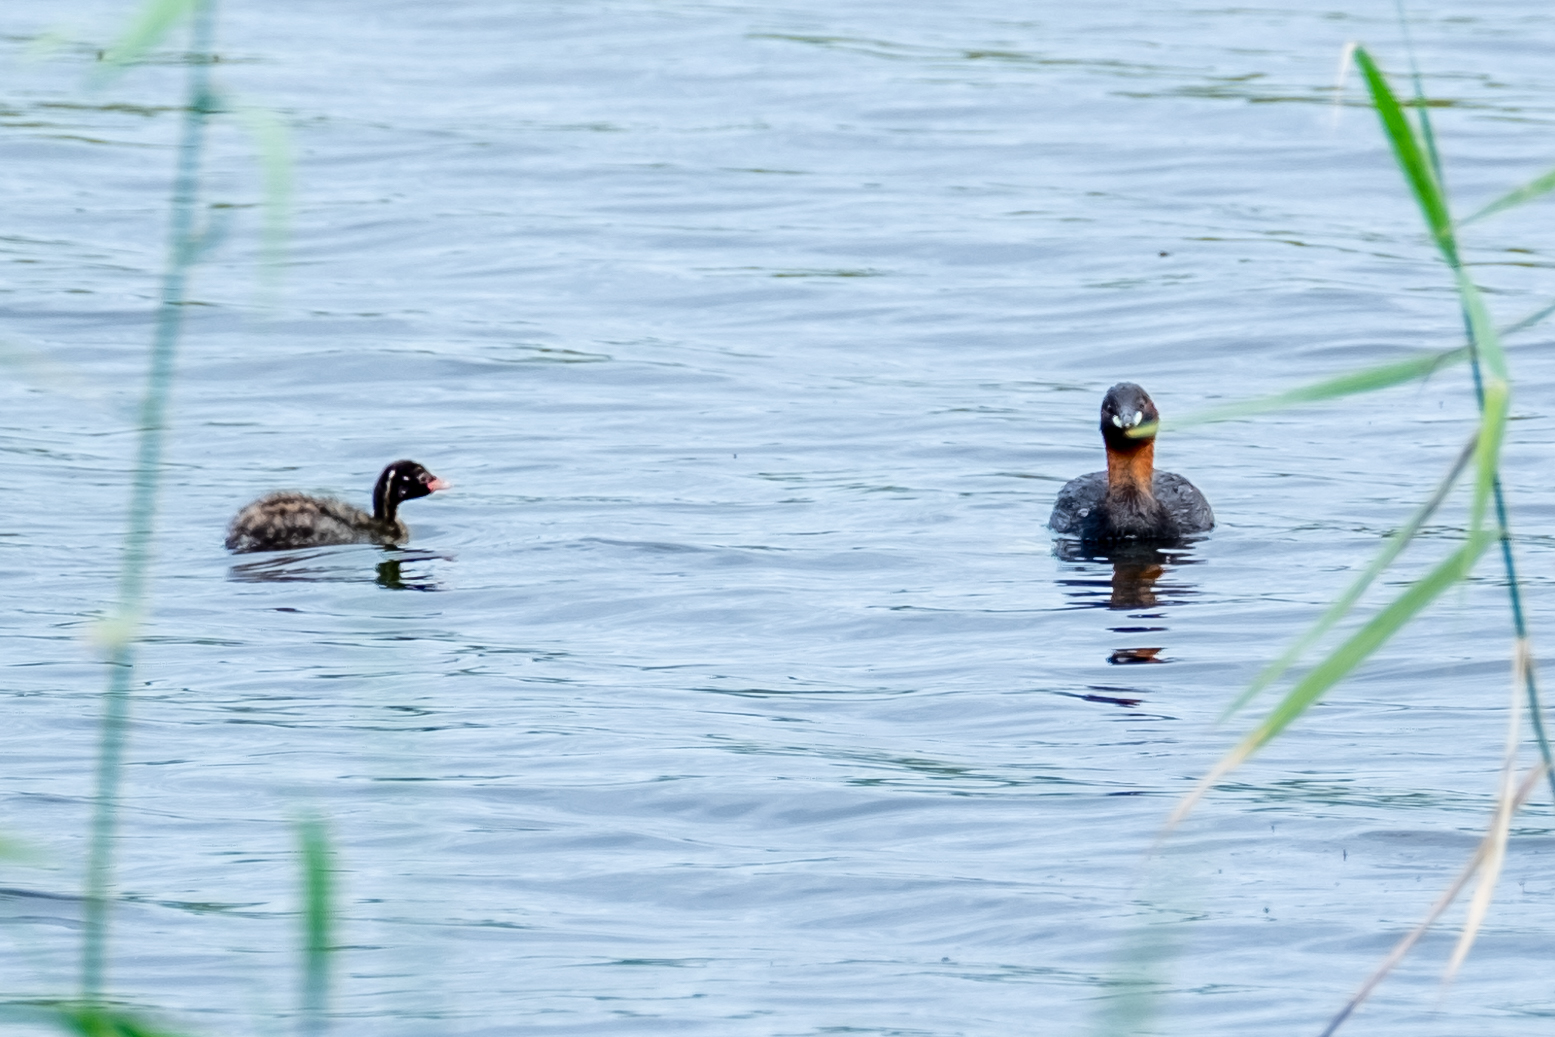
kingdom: Animalia
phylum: Chordata
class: Aves
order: Podicipediformes
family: Podicipedidae
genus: Tachybaptus
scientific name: Tachybaptus ruficollis
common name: Little grebe
